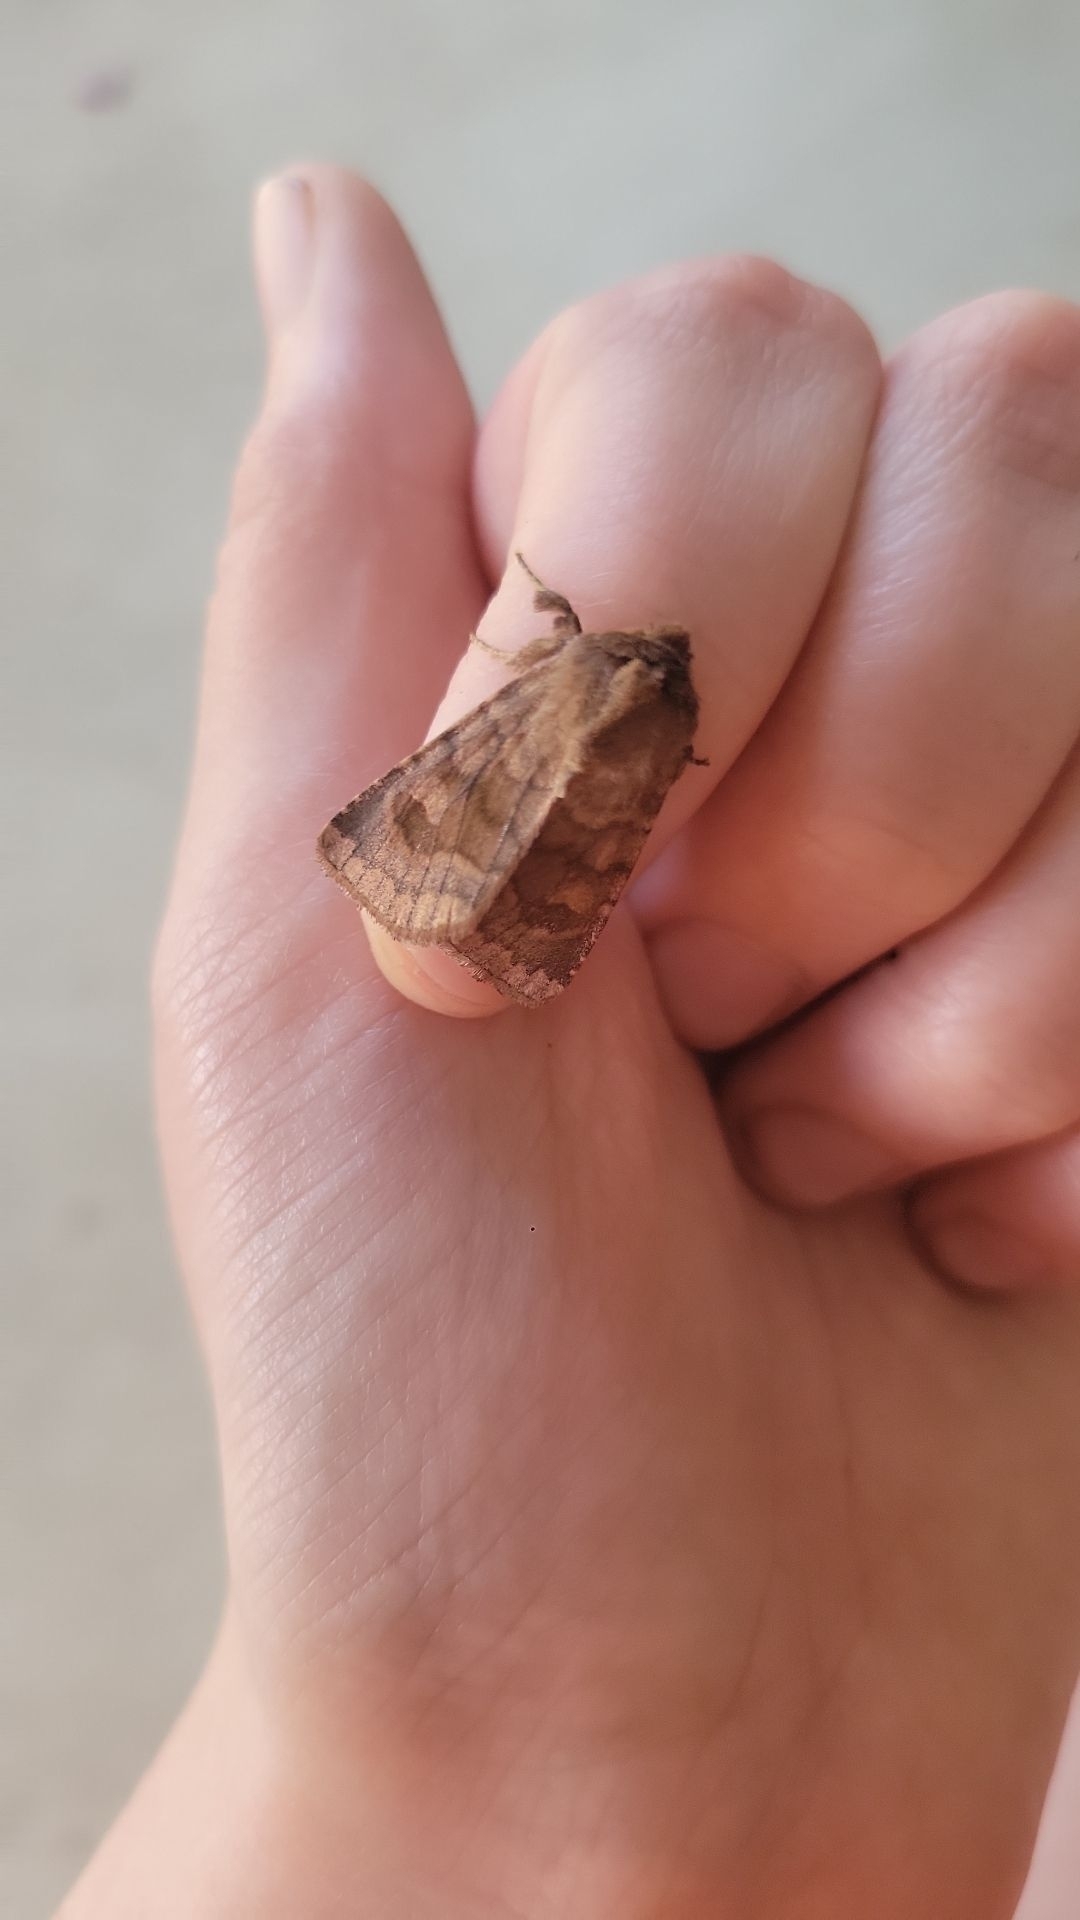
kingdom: Animalia
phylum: Arthropoda
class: Insecta
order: Lepidoptera
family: Noctuidae
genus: Nephelodes
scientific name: Nephelodes minians
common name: Bronzed cutworm
